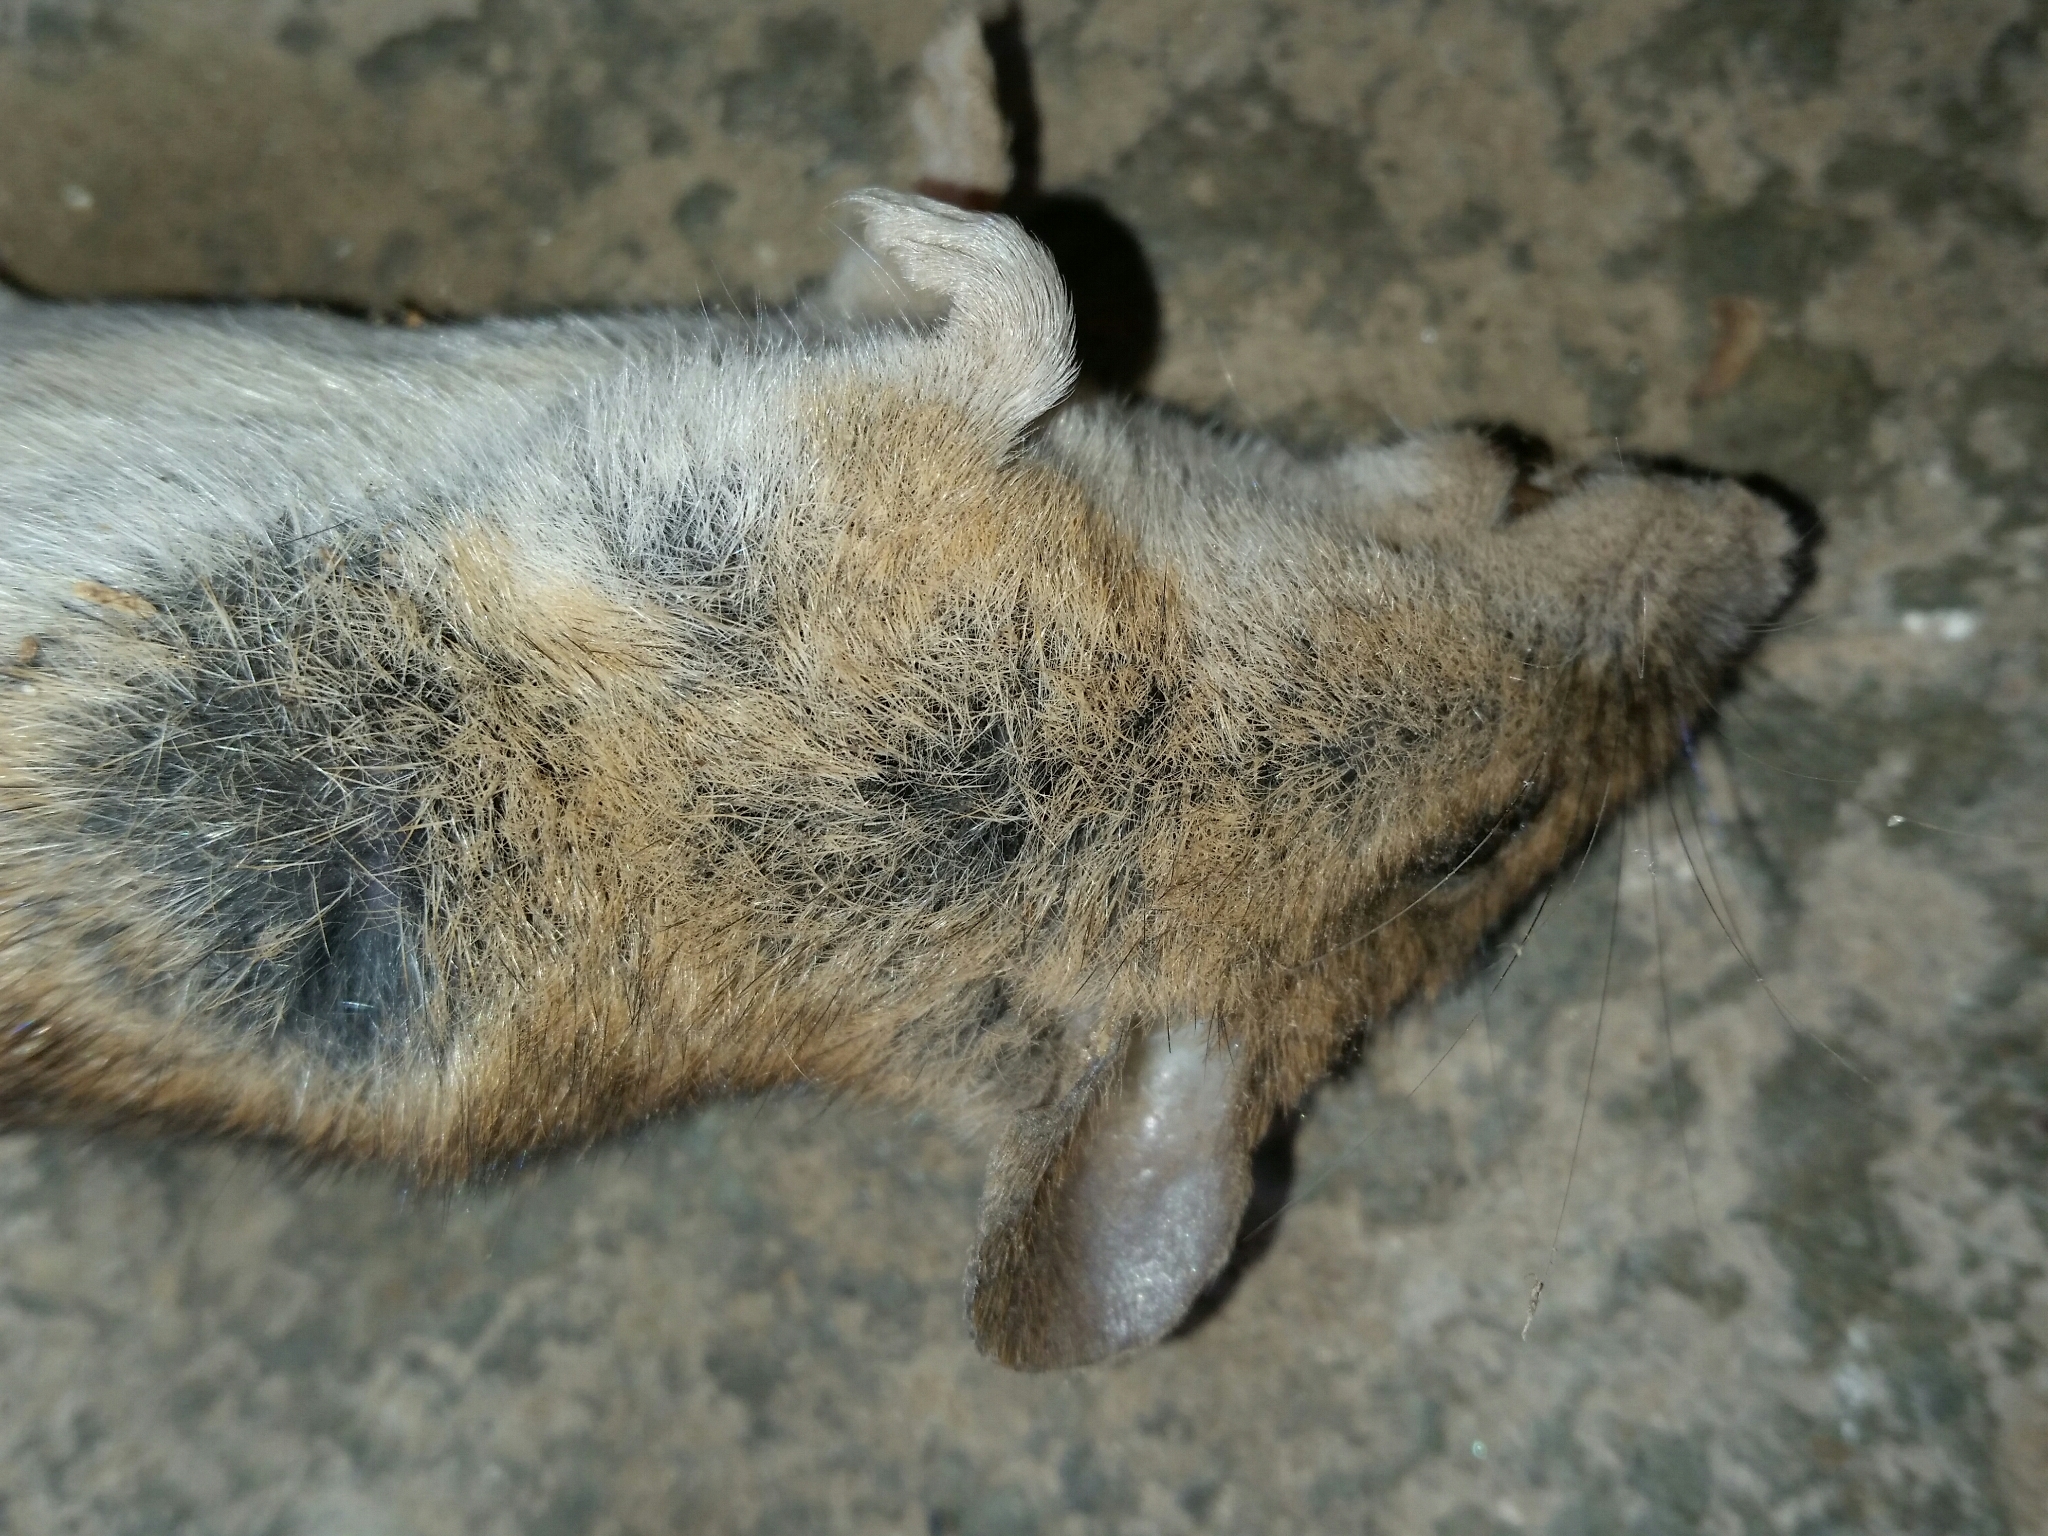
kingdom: Animalia
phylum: Chordata
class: Mammalia
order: Rodentia
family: Muridae
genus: Apodemus
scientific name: Apodemus sylvaticus
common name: Wood mouse
